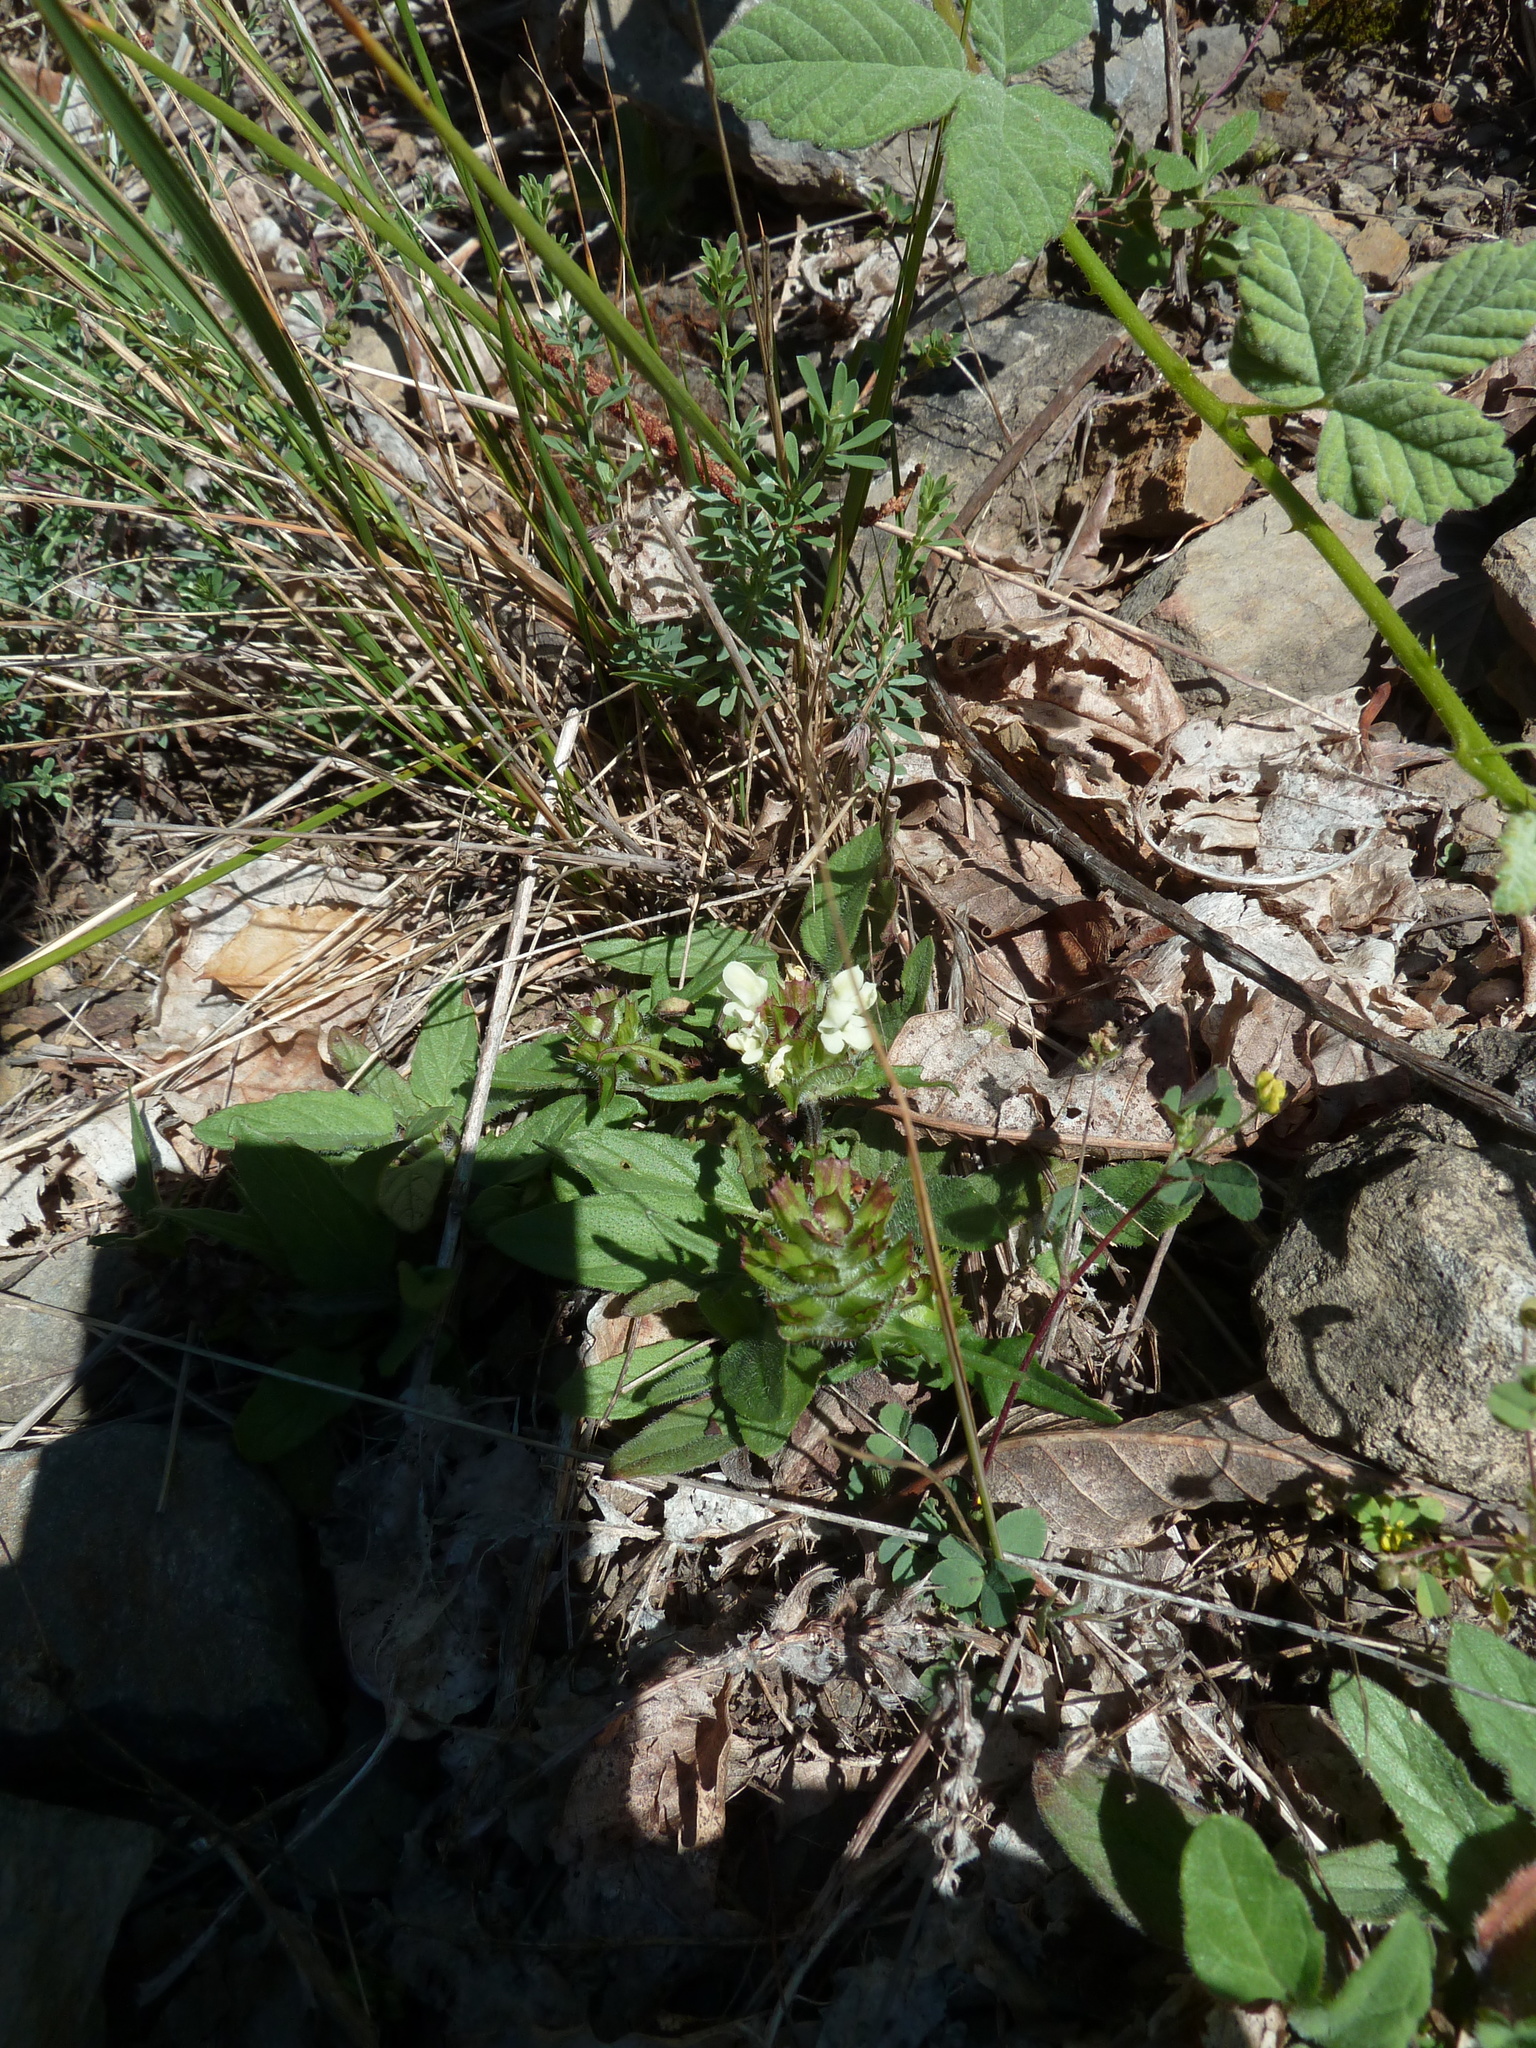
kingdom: Plantae
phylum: Tracheophyta
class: Magnoliopsida
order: Lamiales
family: Lamiaceae
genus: Prunella
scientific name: Prunella laciniata
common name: Cut-leaved selfheal
